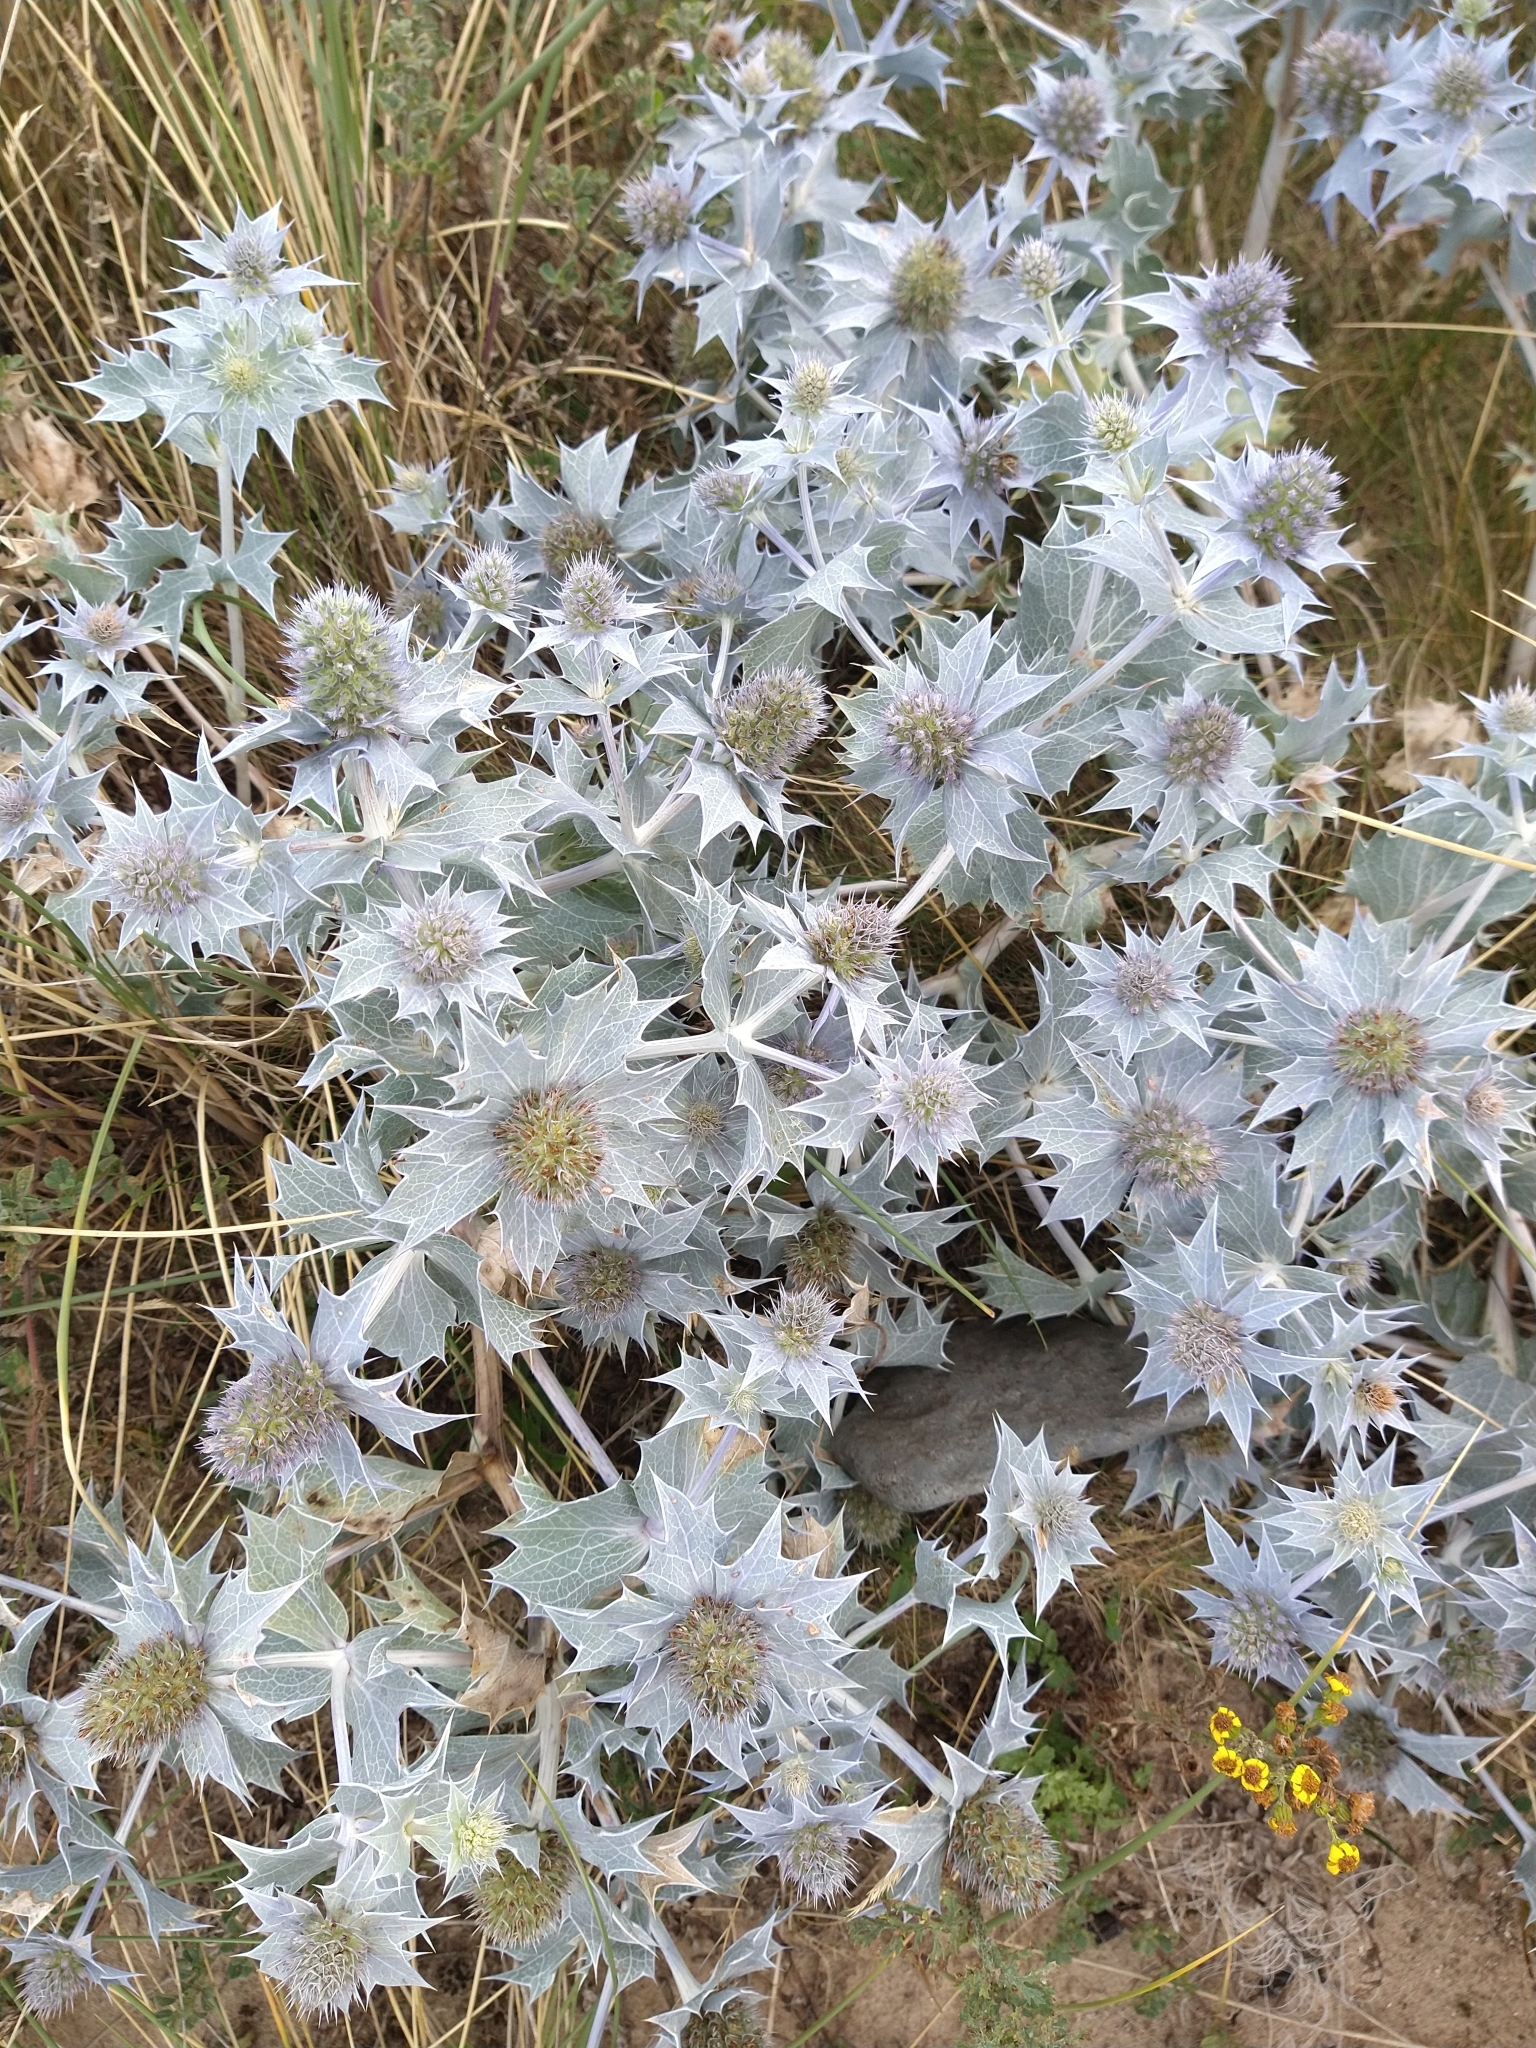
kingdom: Plantae
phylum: Tracheophyta
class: Magnoliopsida
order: Apiales
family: Apiaceae
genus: Eryngium
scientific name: Eryngium maritimum
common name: Sea-holly
